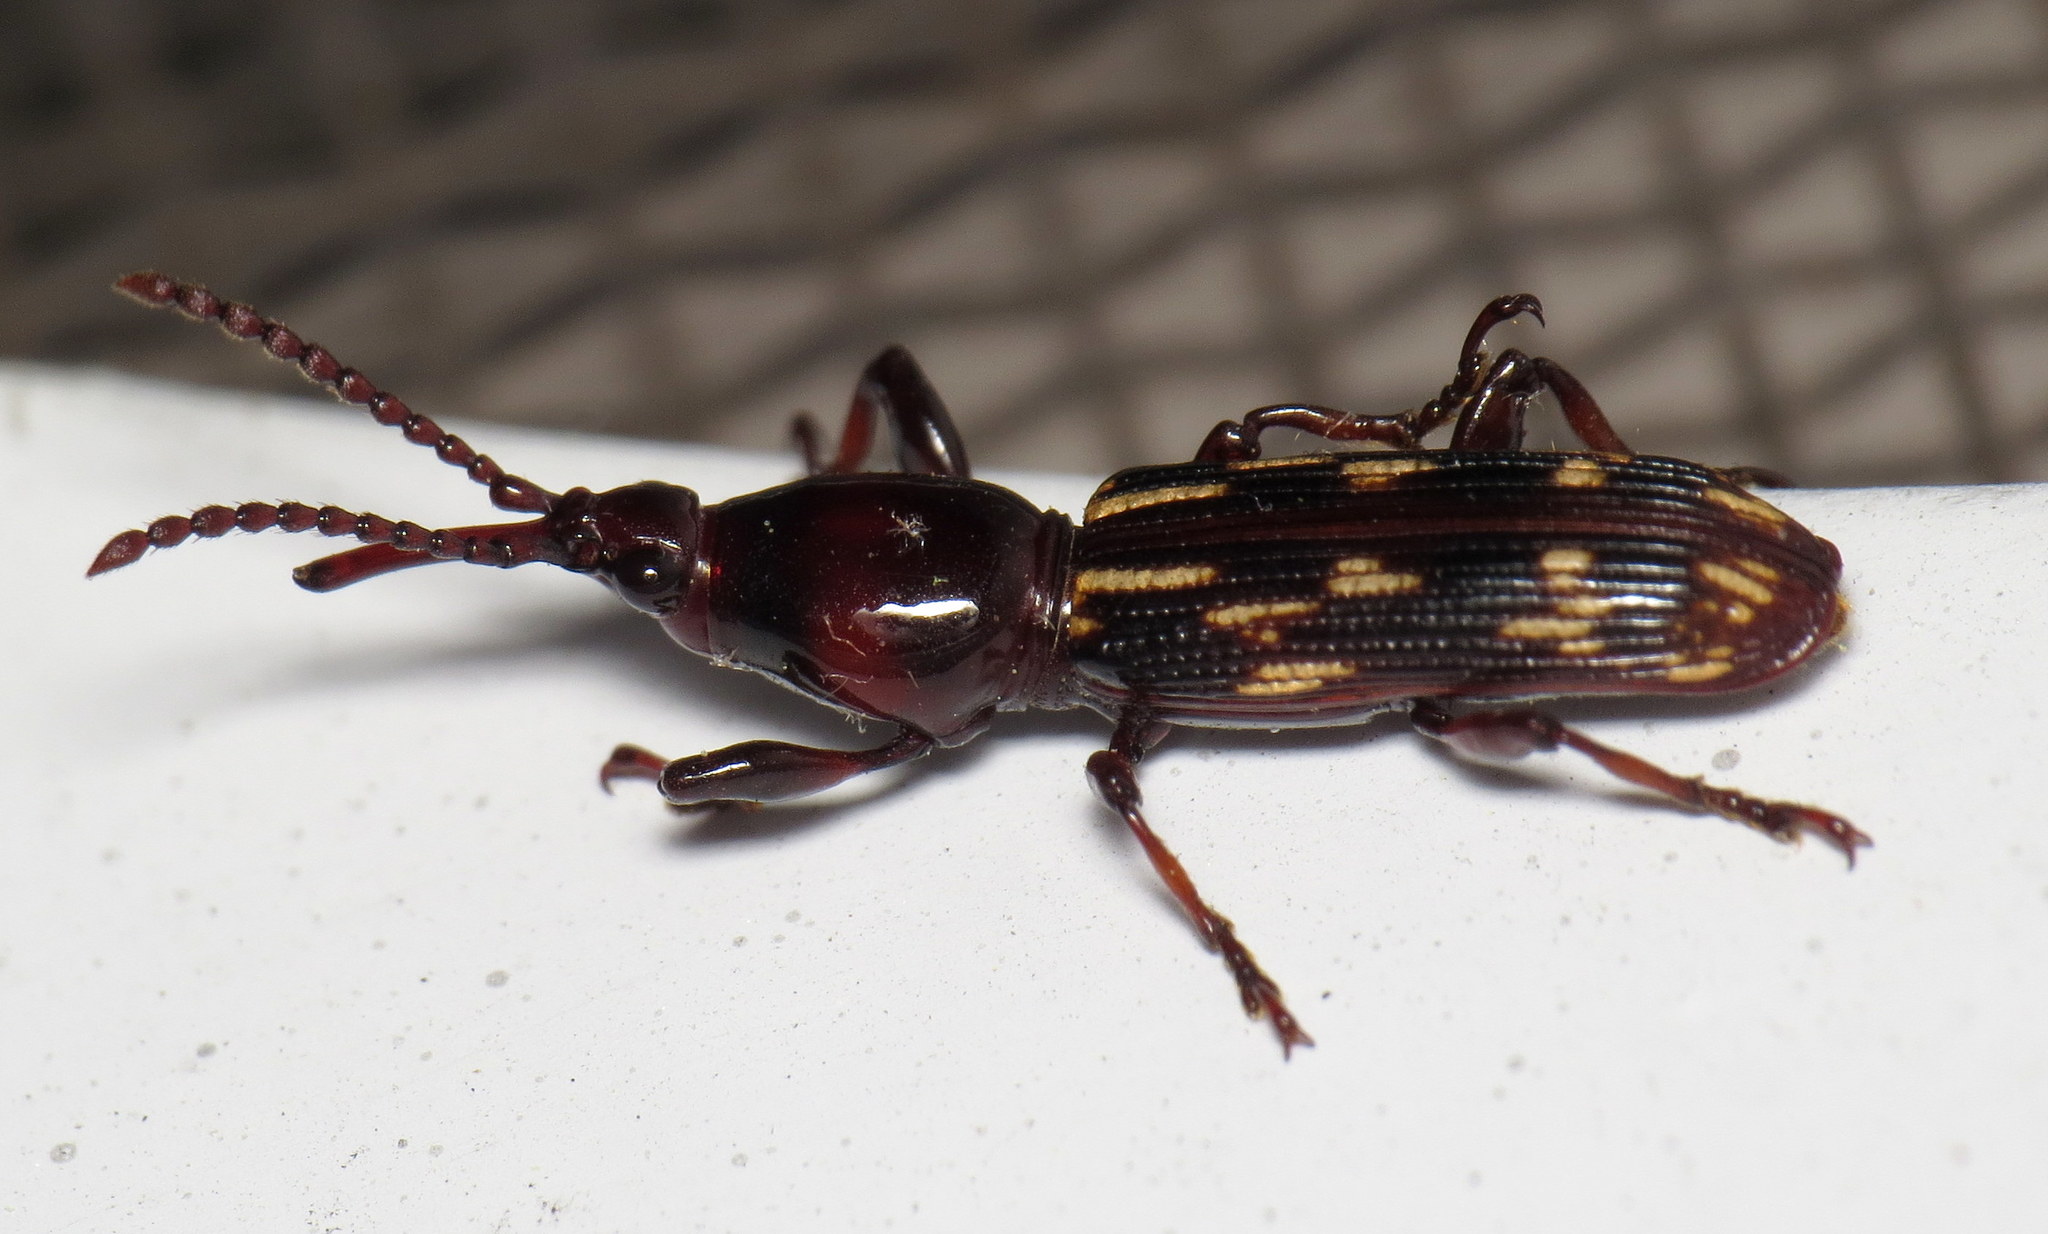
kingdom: Animalia
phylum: Arthropoda
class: Insecta
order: Coleoptera
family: Brentidae
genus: Arrenodes
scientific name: Arrenodes minutus
